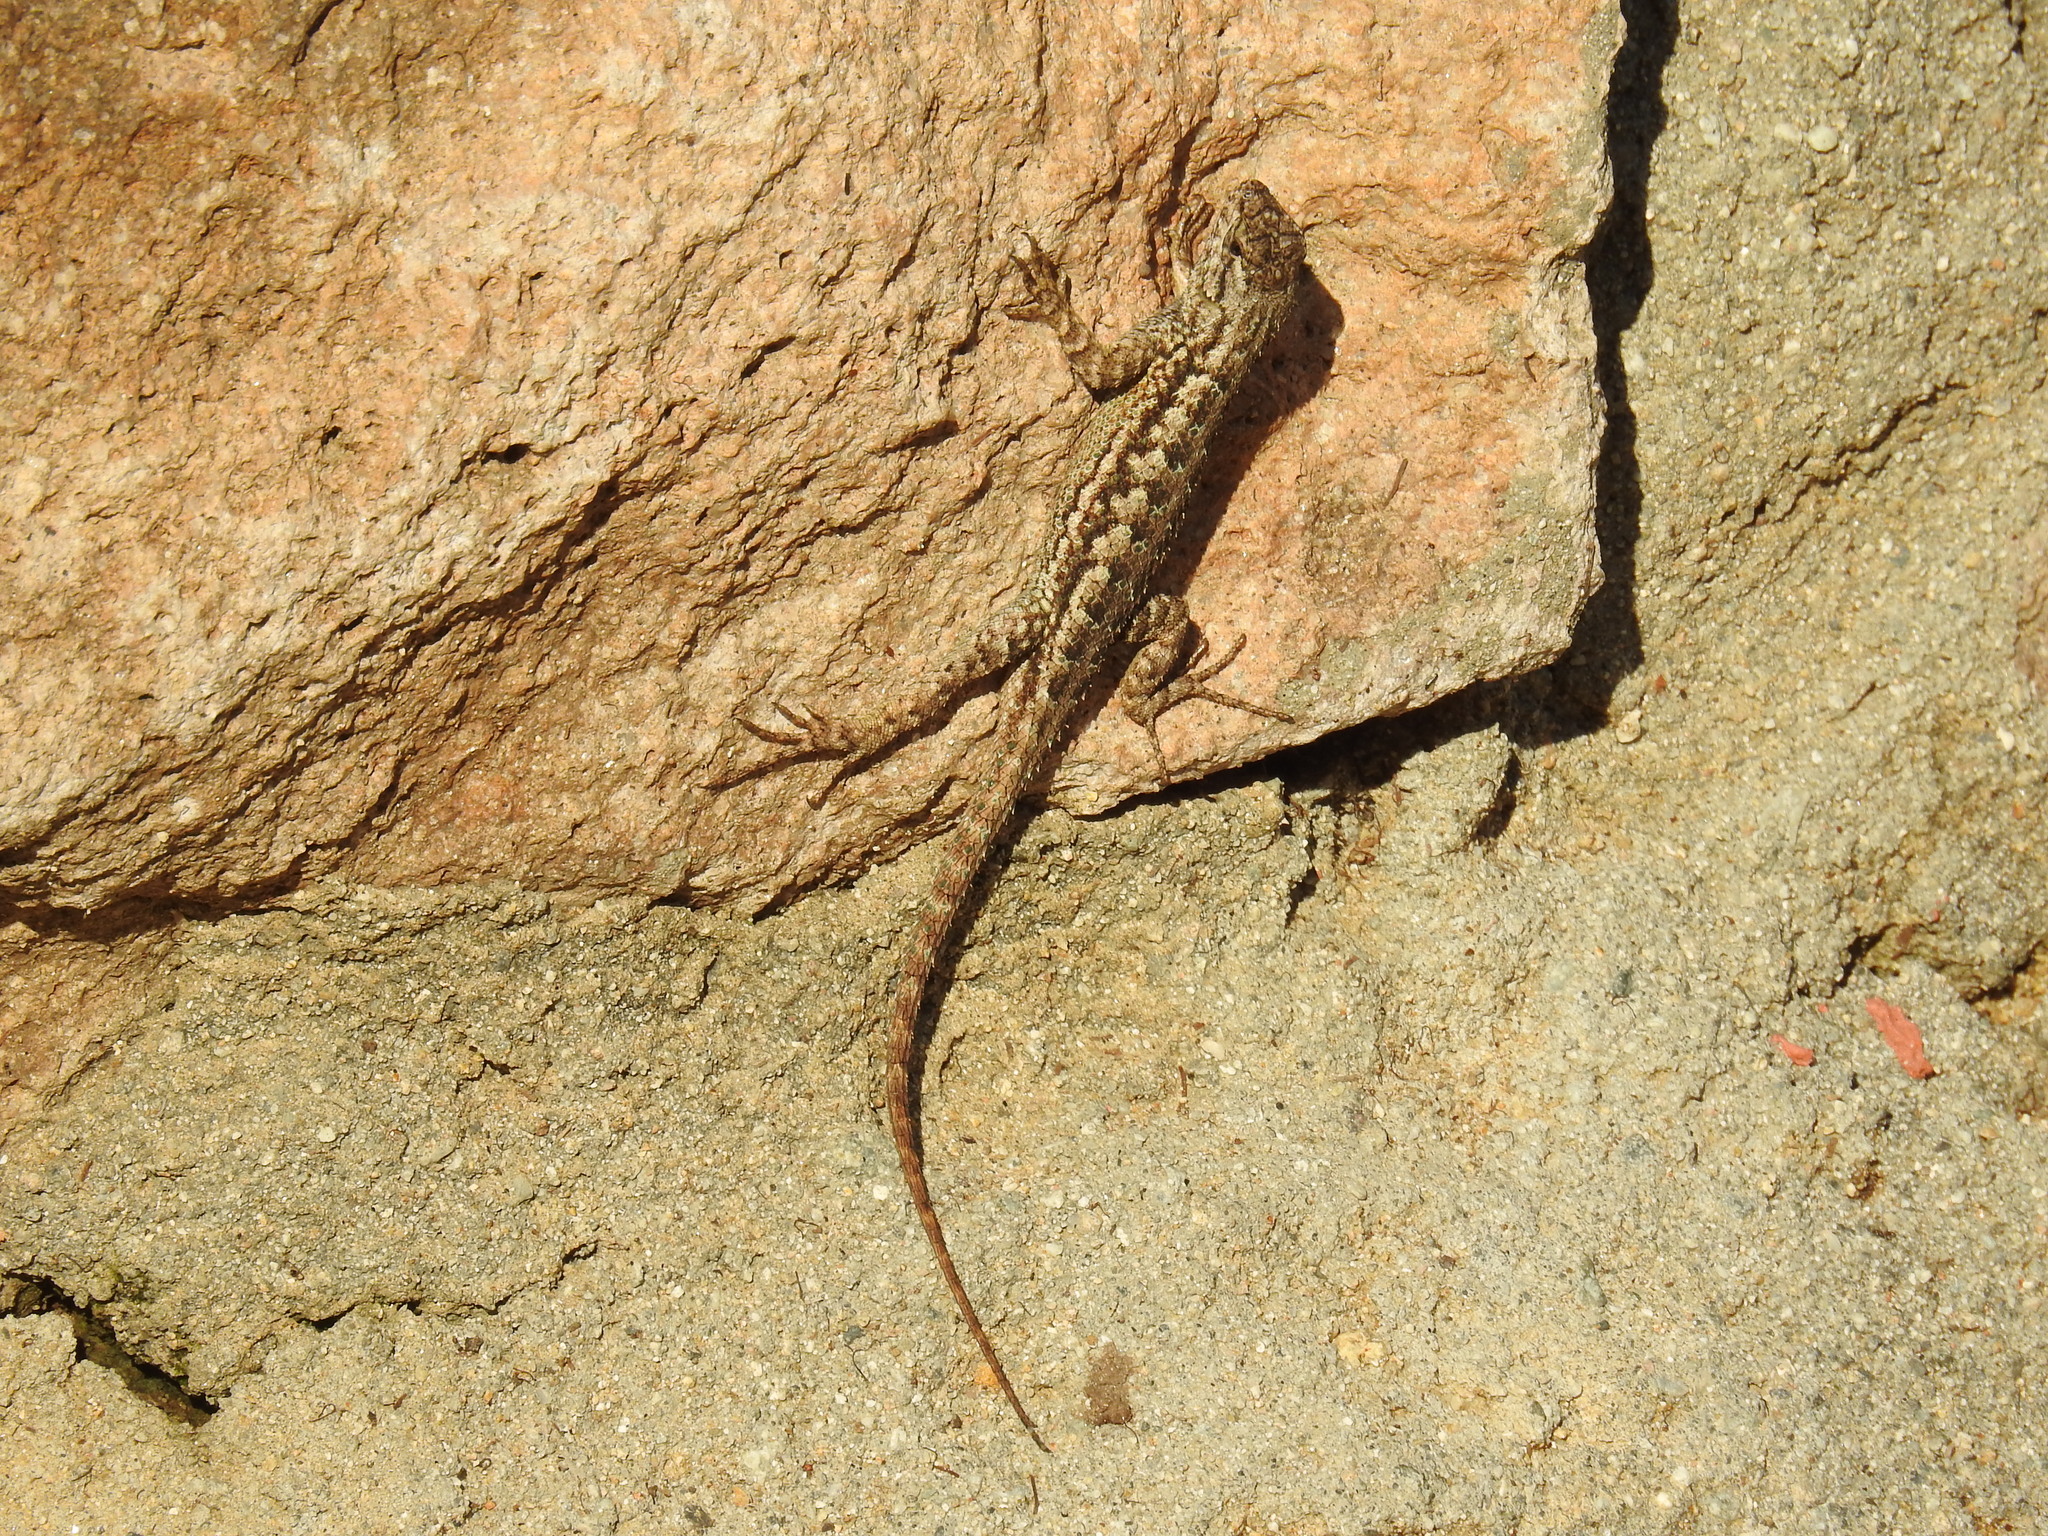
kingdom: Animalia
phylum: Chordata
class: Squamata
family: Phrynosomatidae
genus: Sceloporus
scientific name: Sceloporus occidentalis
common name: Western fence lizard
